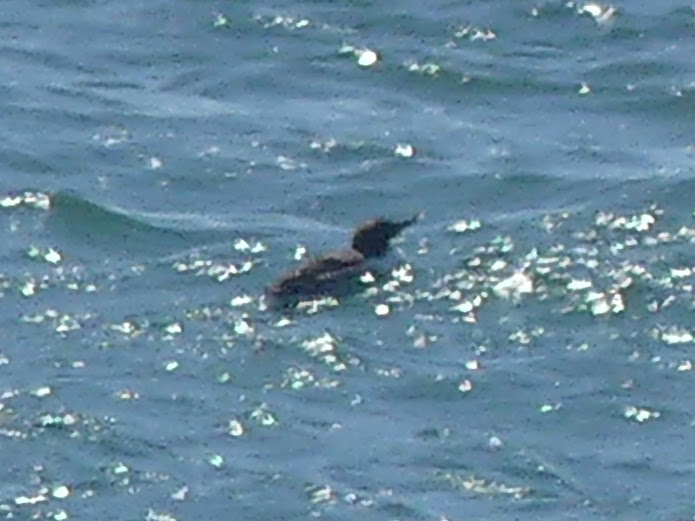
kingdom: Animalia
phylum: Chordata
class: Aves
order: Charadriiformes
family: Alcidae
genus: Uria
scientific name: Uria aalge
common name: Common murre
